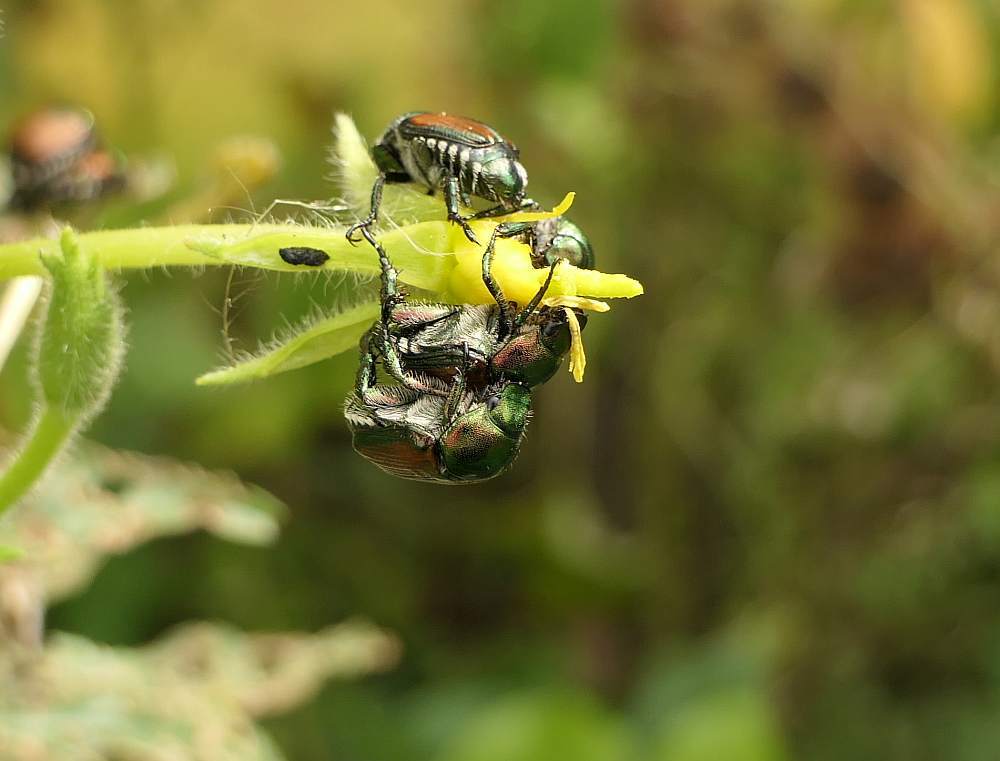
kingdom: Animalia
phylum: Arthropoda
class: Insecta
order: Coleoptera
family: Scarabaeidae
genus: Popillia
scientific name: Popillia japonica
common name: Japanese beetle
